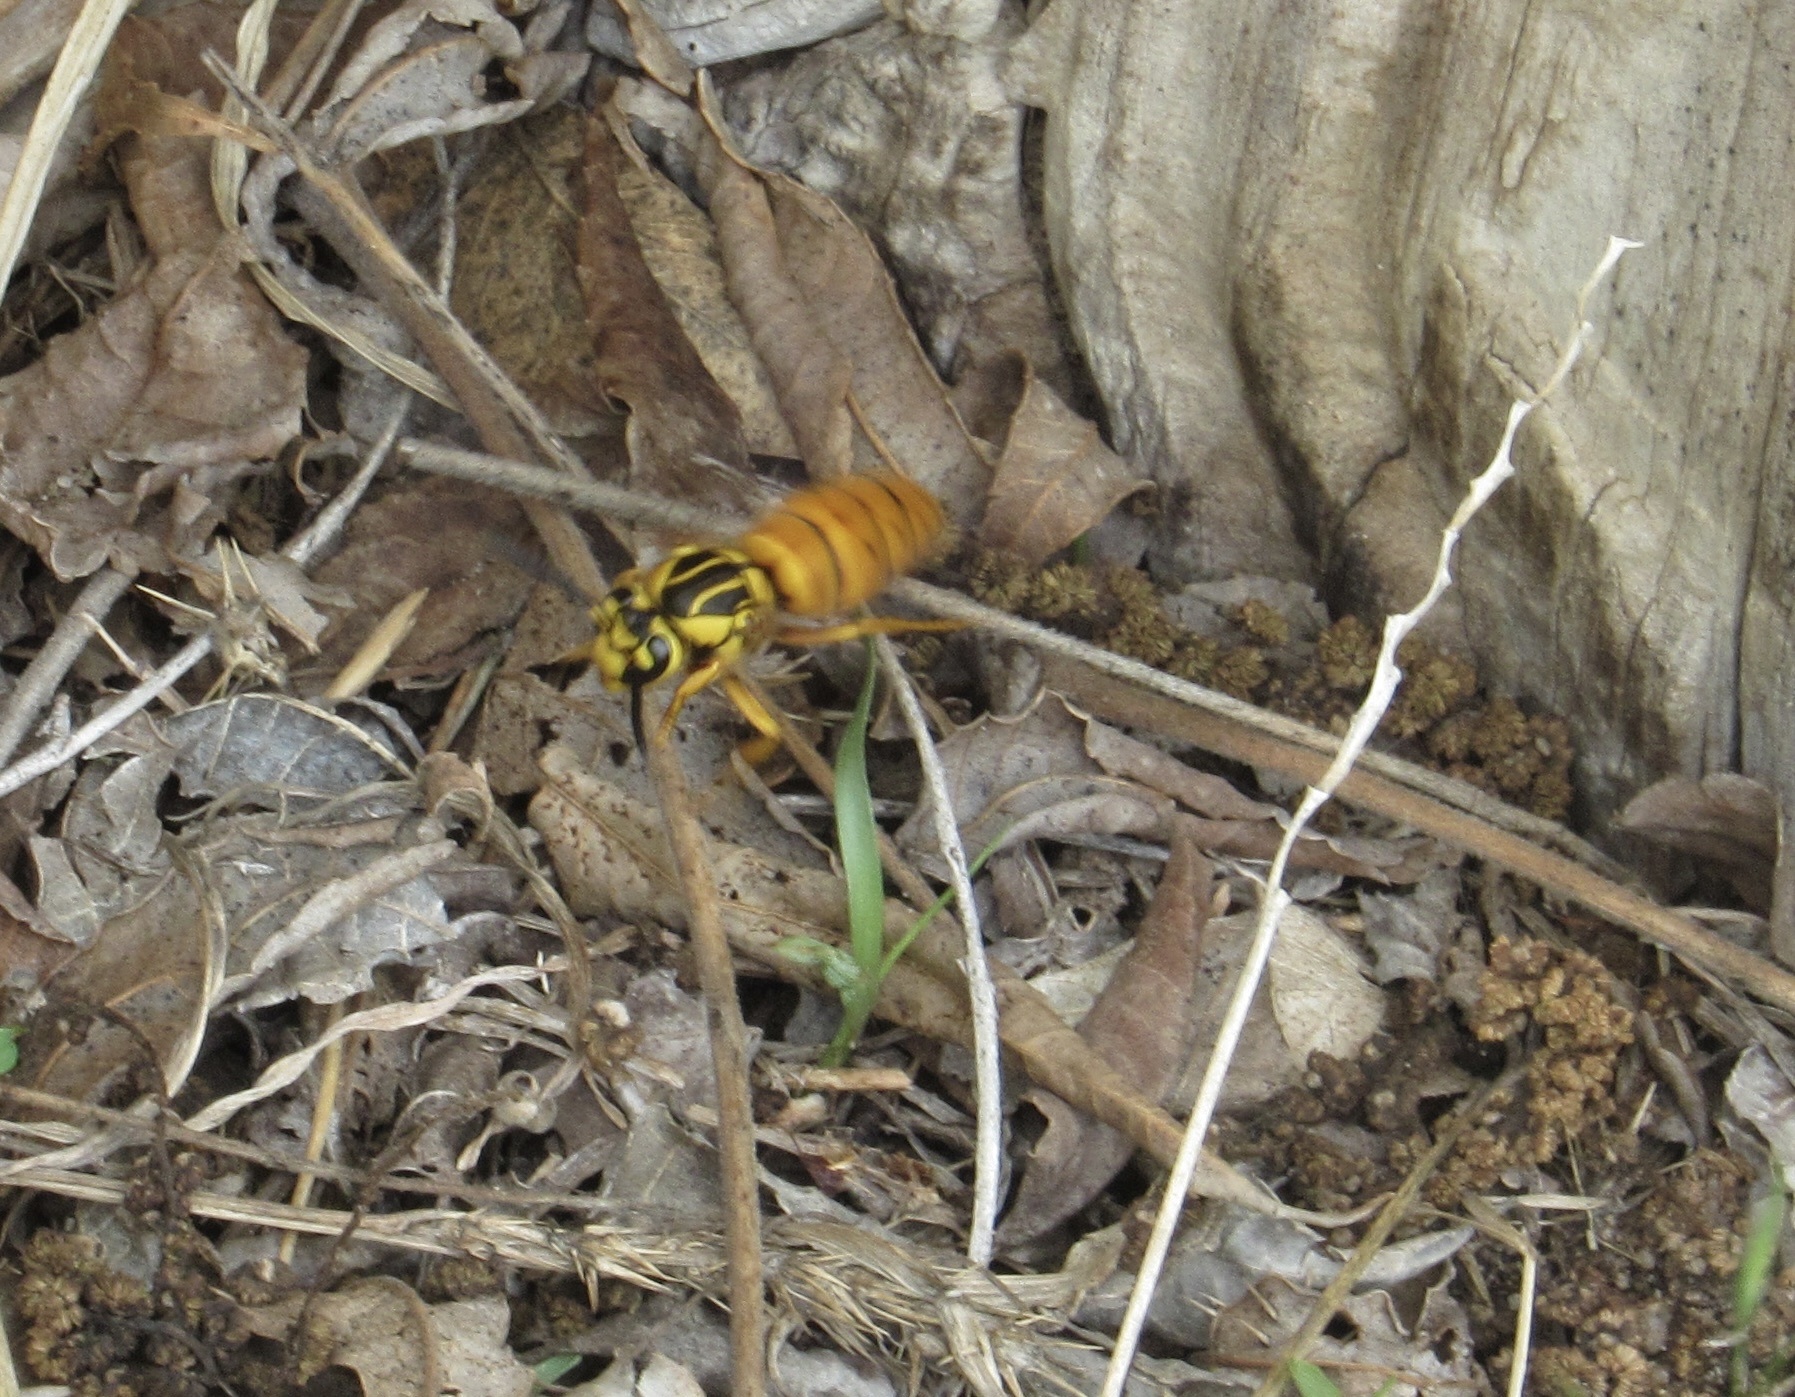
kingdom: Animalia
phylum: Arthropoda
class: Insecta
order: Hymenoptera
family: Vespidae
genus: Vespula
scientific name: Vespula squamosa
